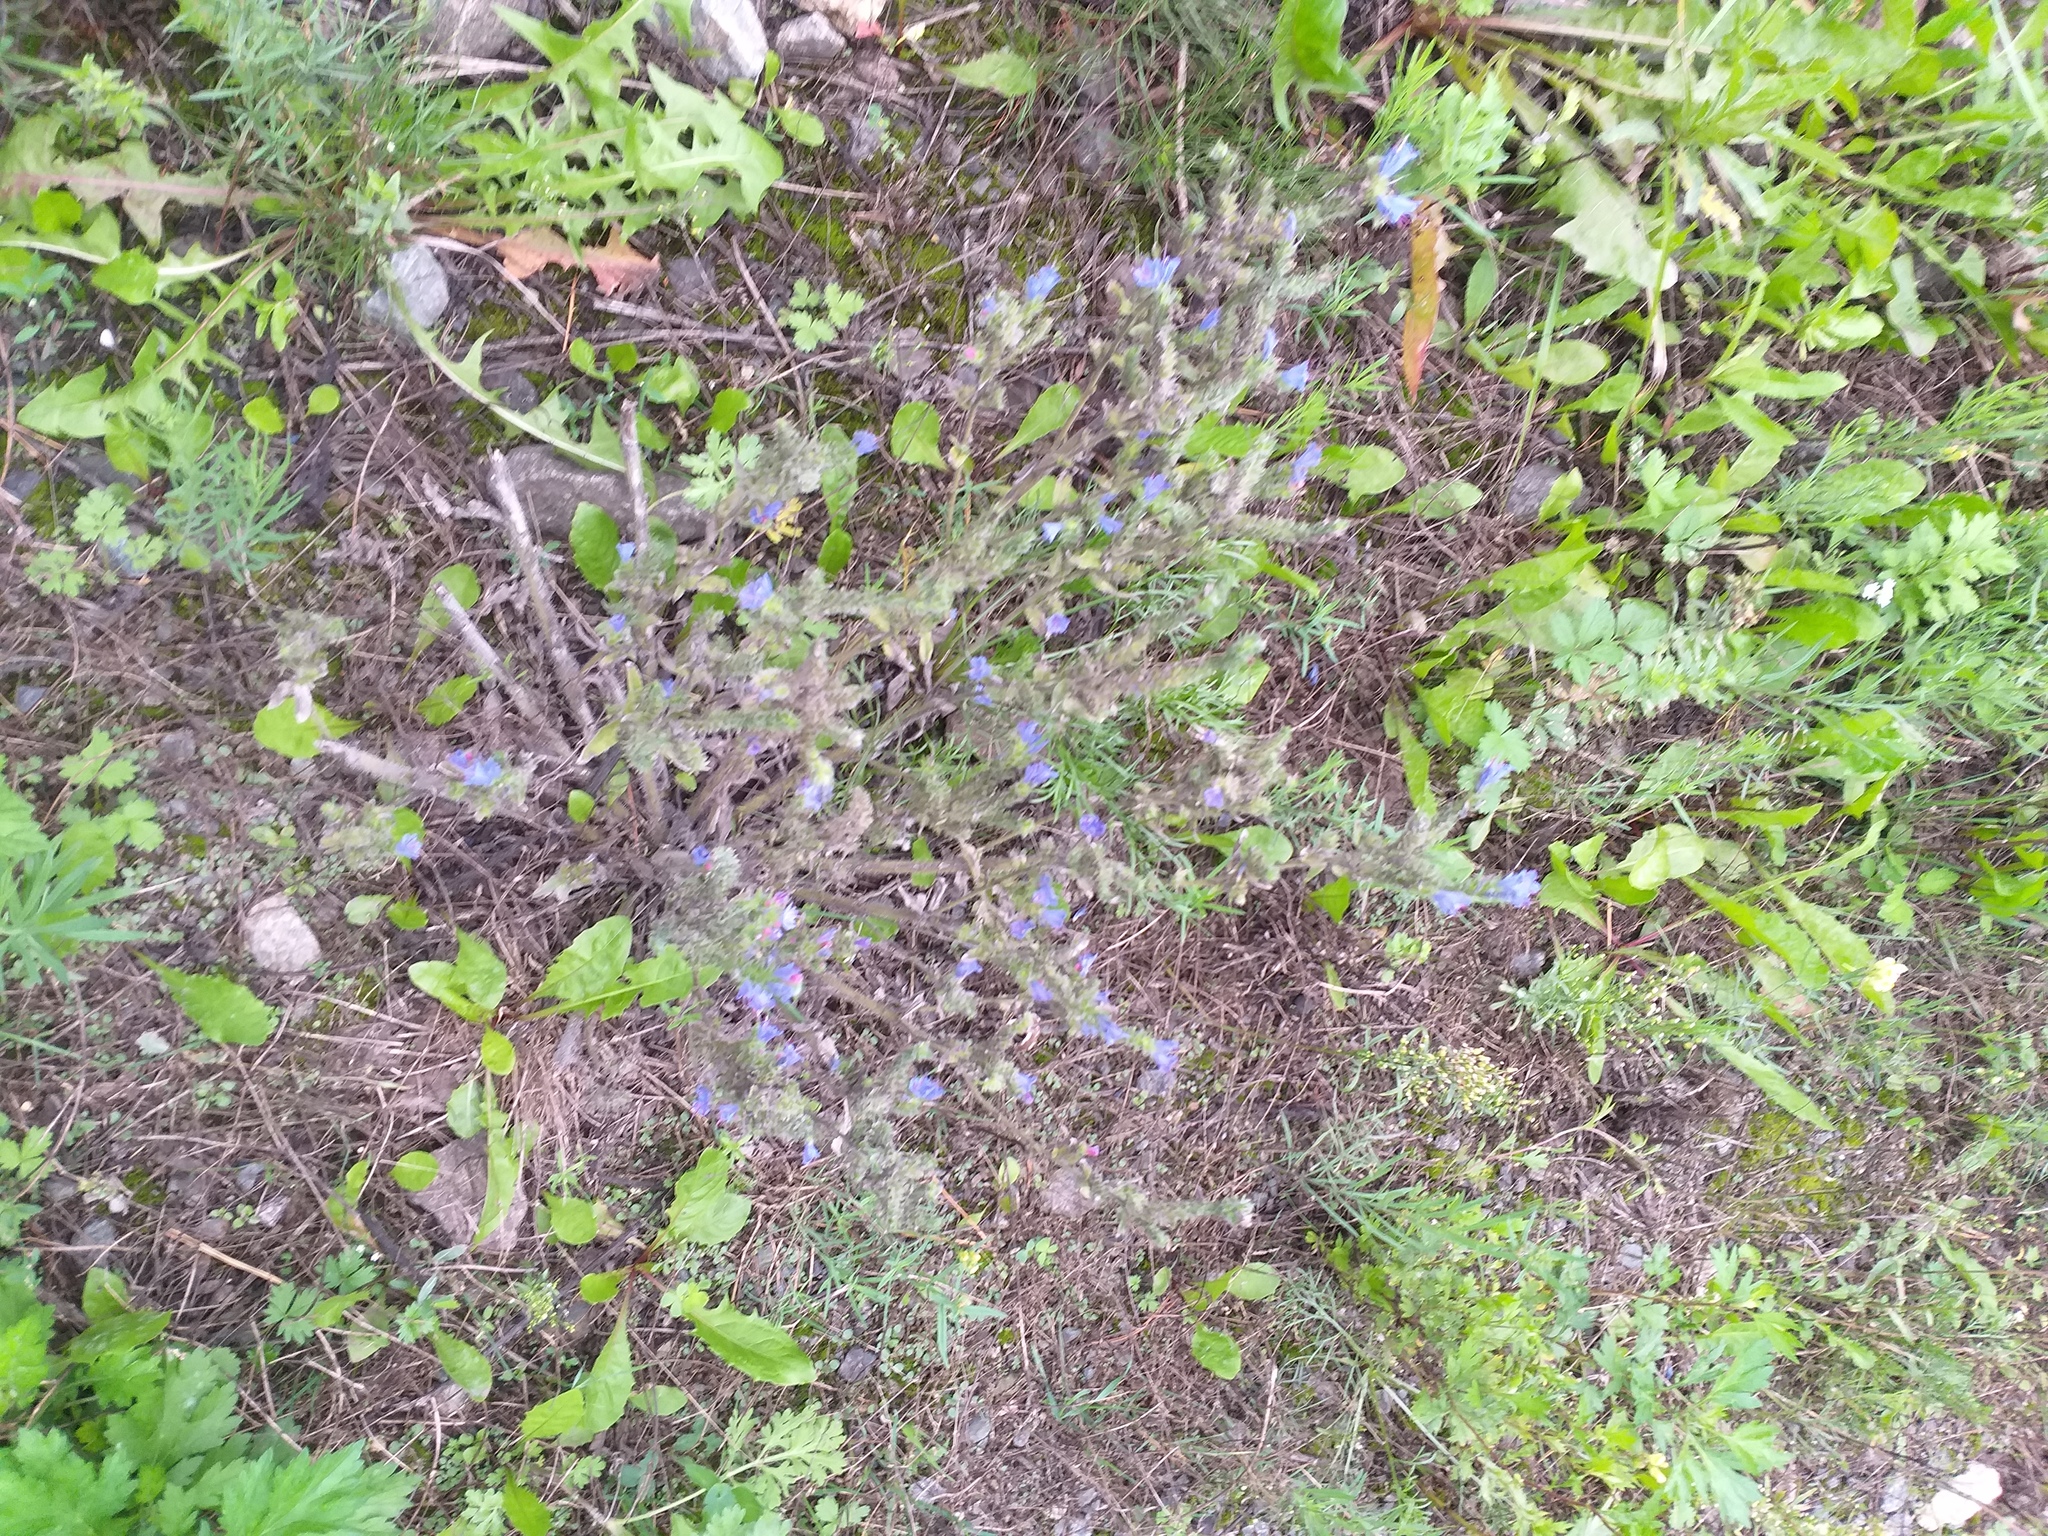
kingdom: Plantae
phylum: Tracheophyta
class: Magnoliopsida
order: Boraginales
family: Boraginaceae
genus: Echium
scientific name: Echium vulgare
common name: Common viper's bugloss
